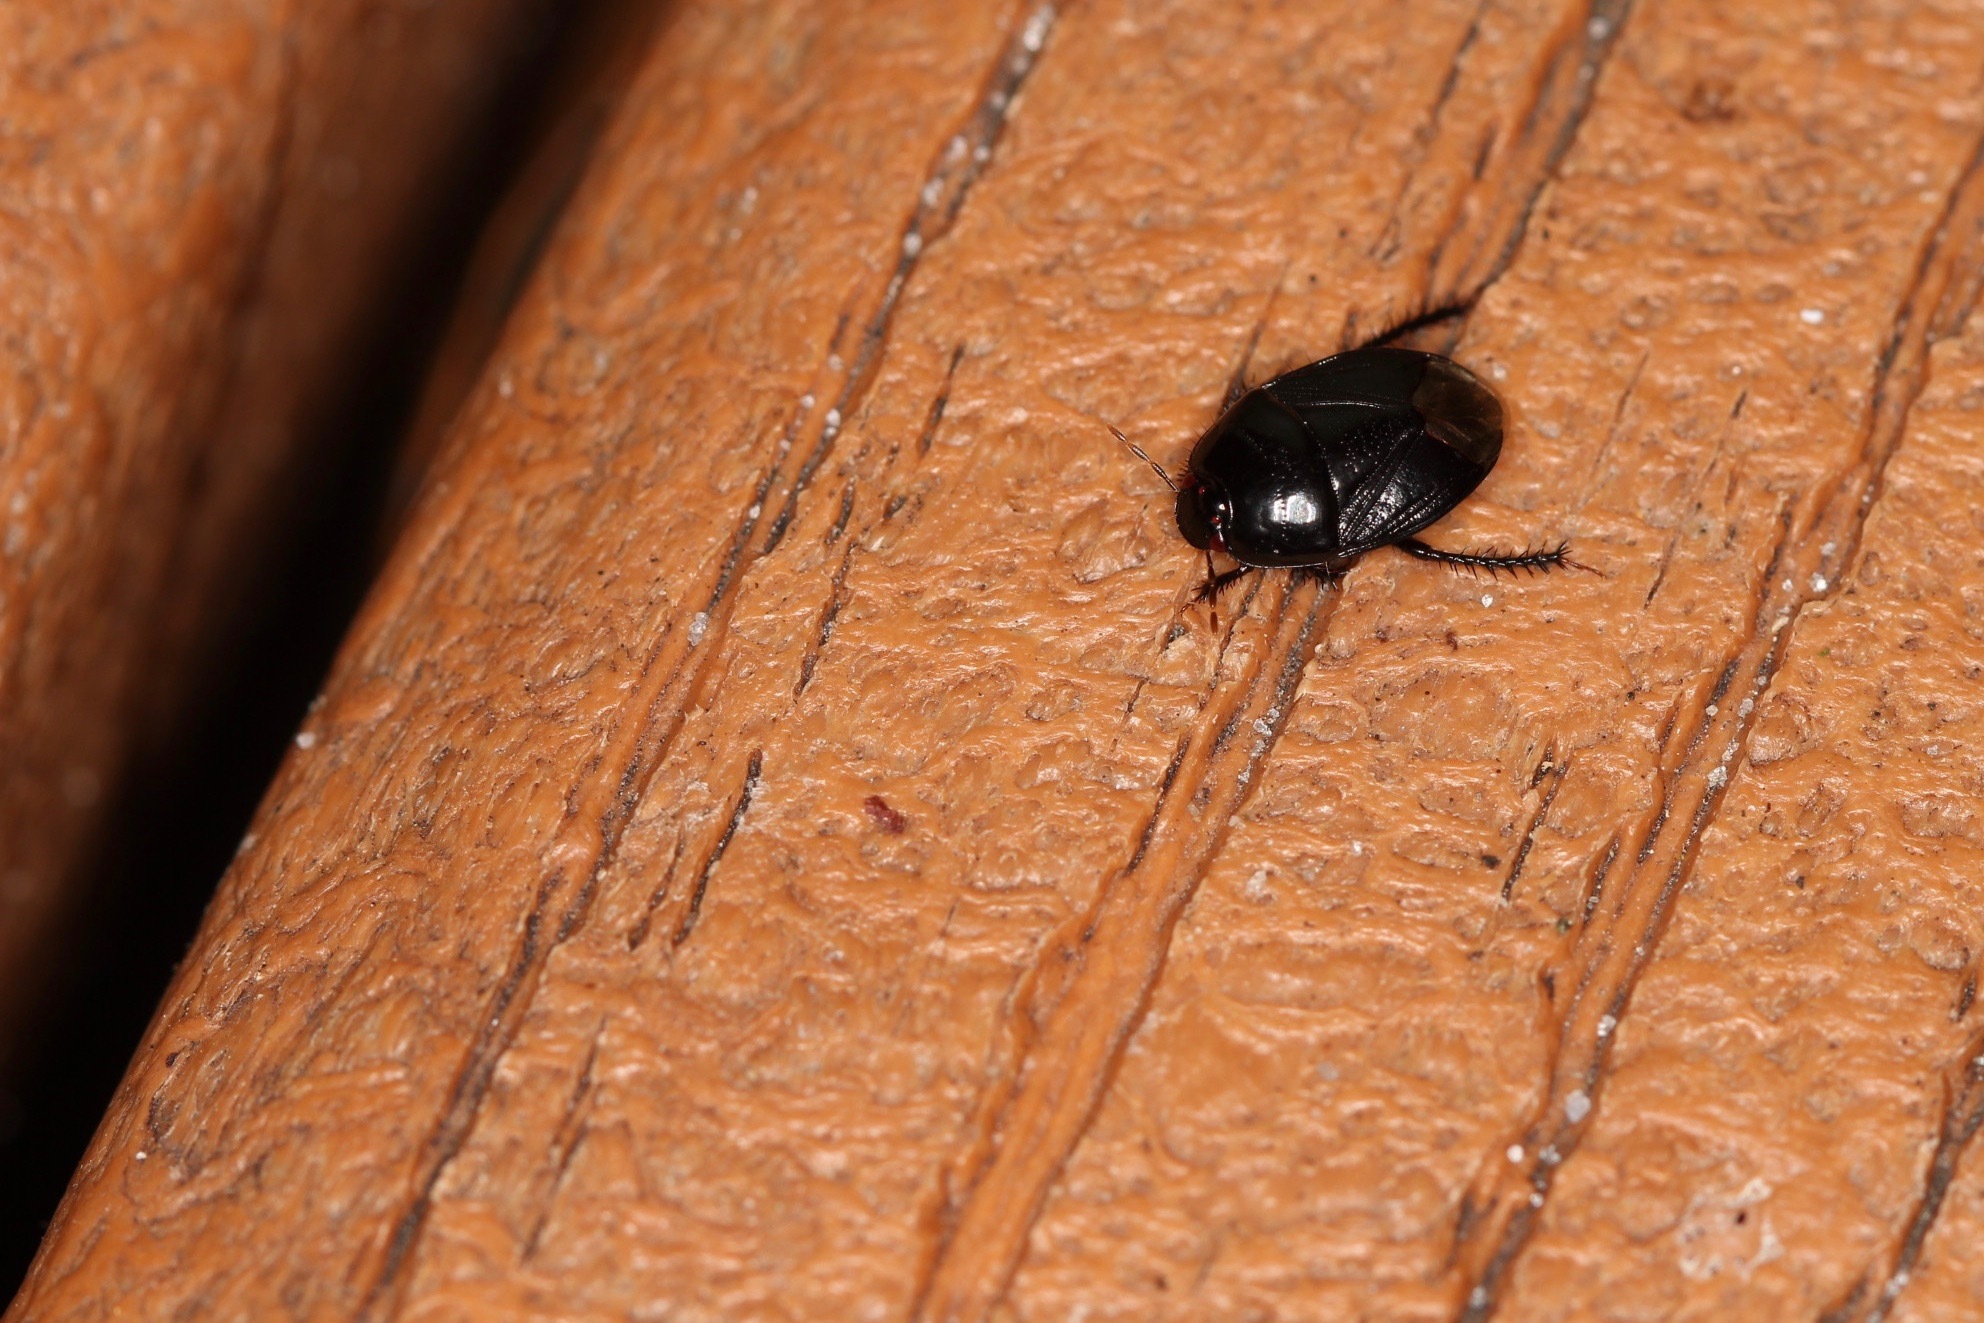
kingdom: Animalia
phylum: Arthropoda
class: Insecta
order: Hemiptera
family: Cydnidae
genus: Pangaeus
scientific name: Pangaeus bilineatus
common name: Burrower bug
